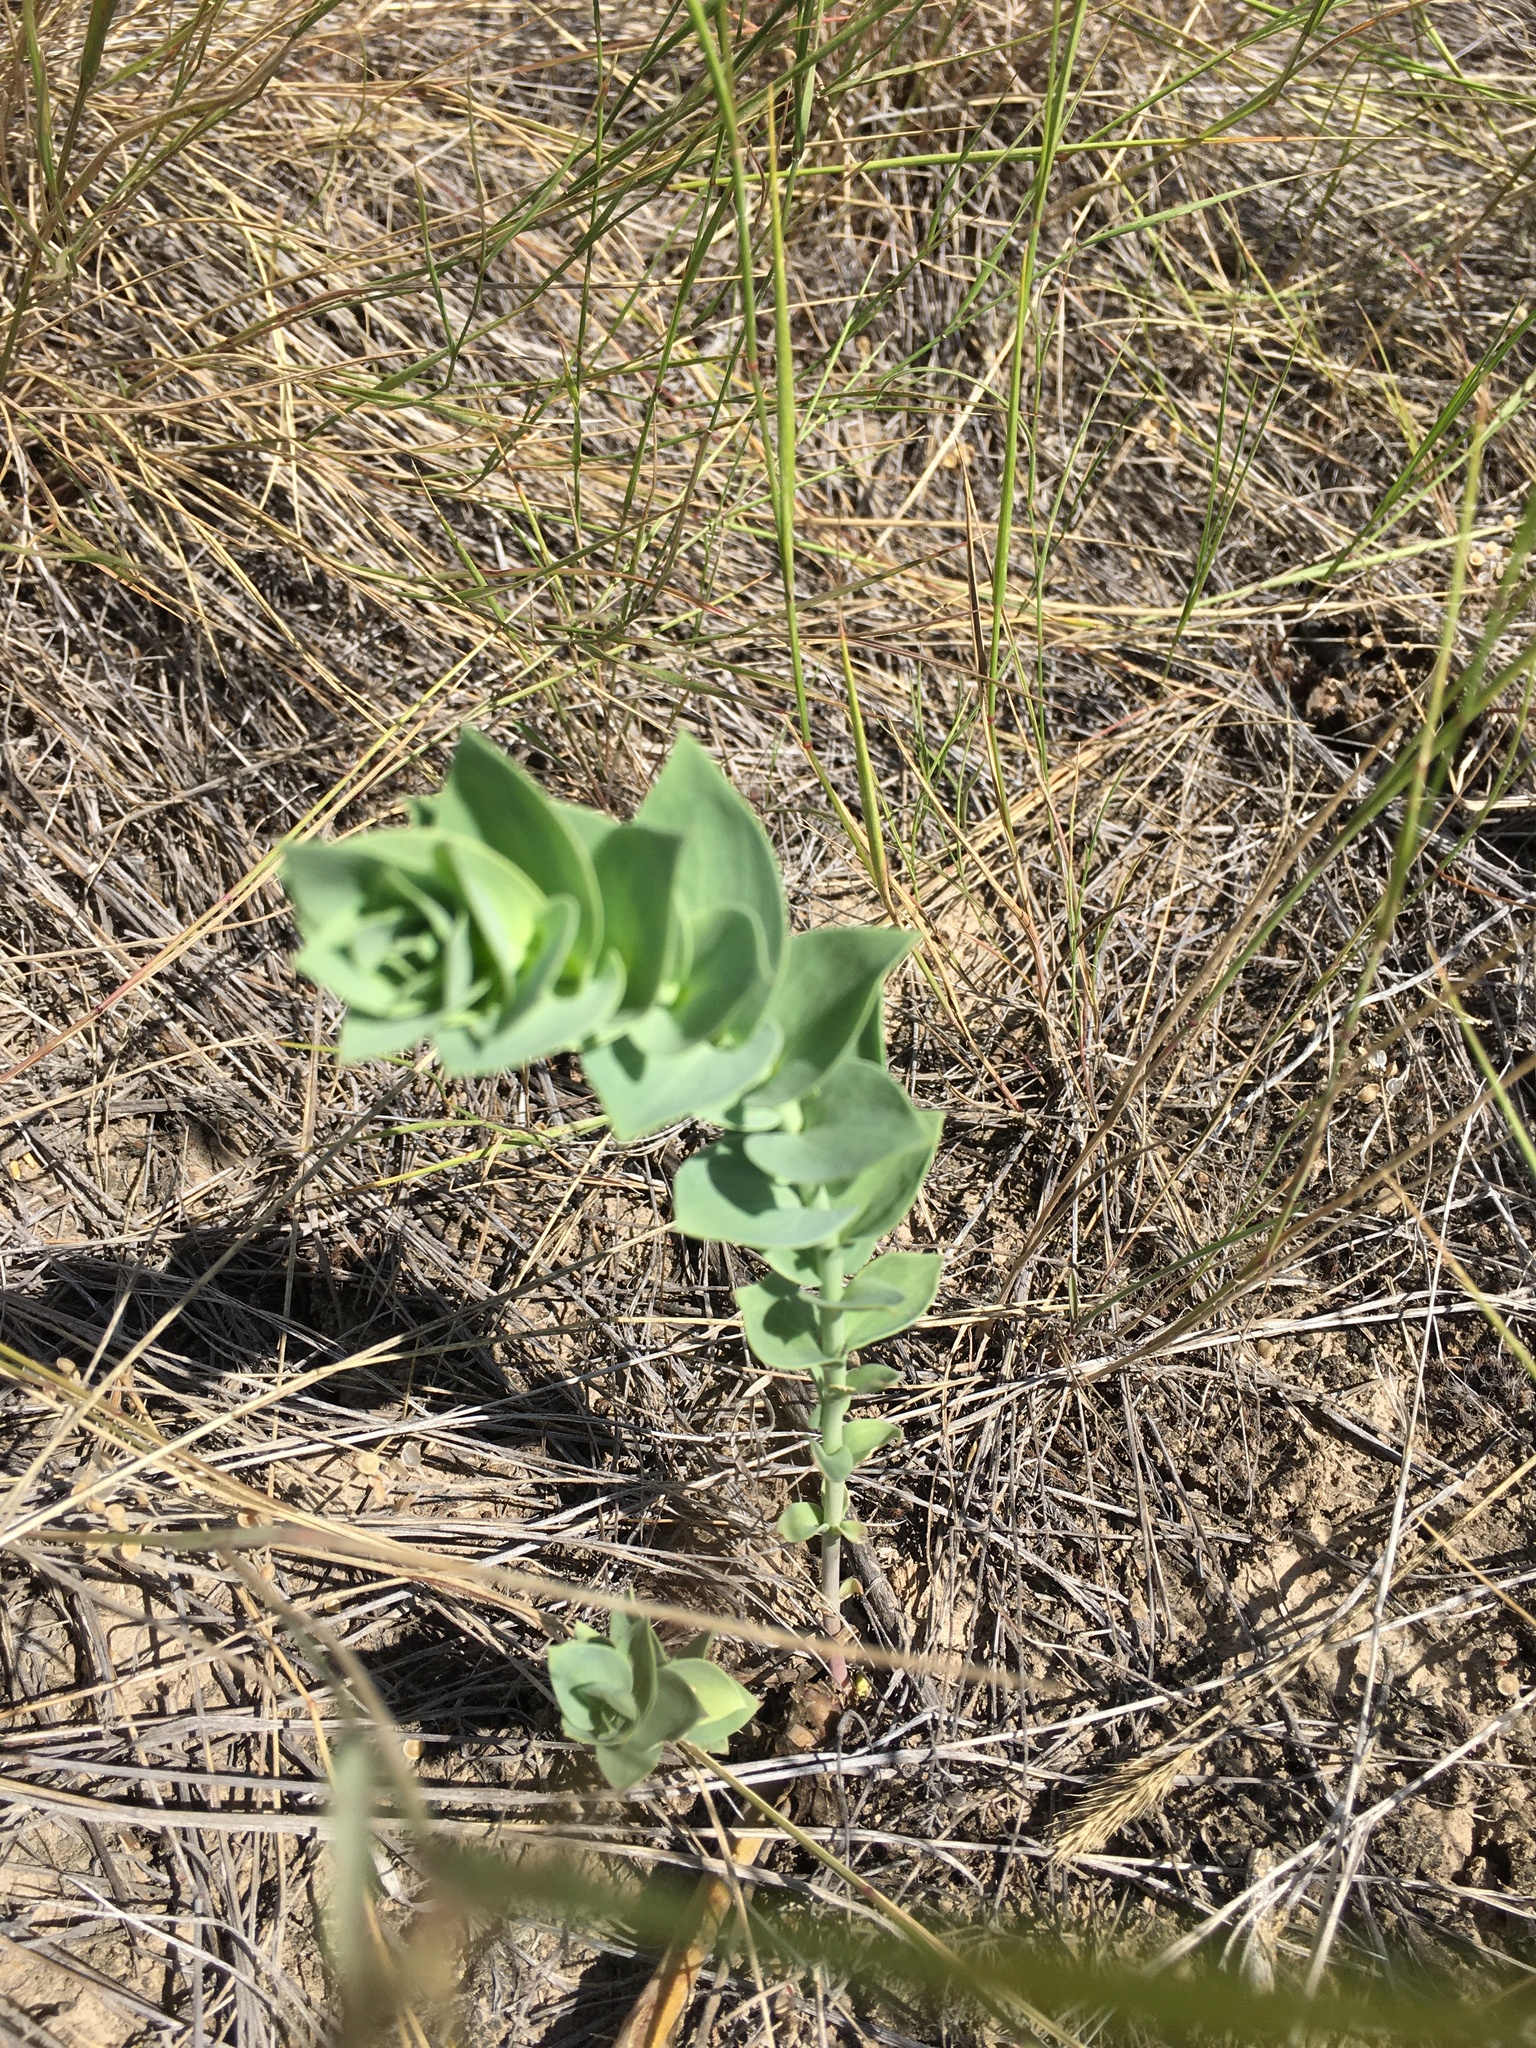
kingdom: Plantae
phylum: Tracheophyta
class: Magnoliopsida
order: Lamiales
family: Plantaginaceae
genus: Linaria
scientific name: Linaria dalmatica
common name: Dalmatian toadflax
